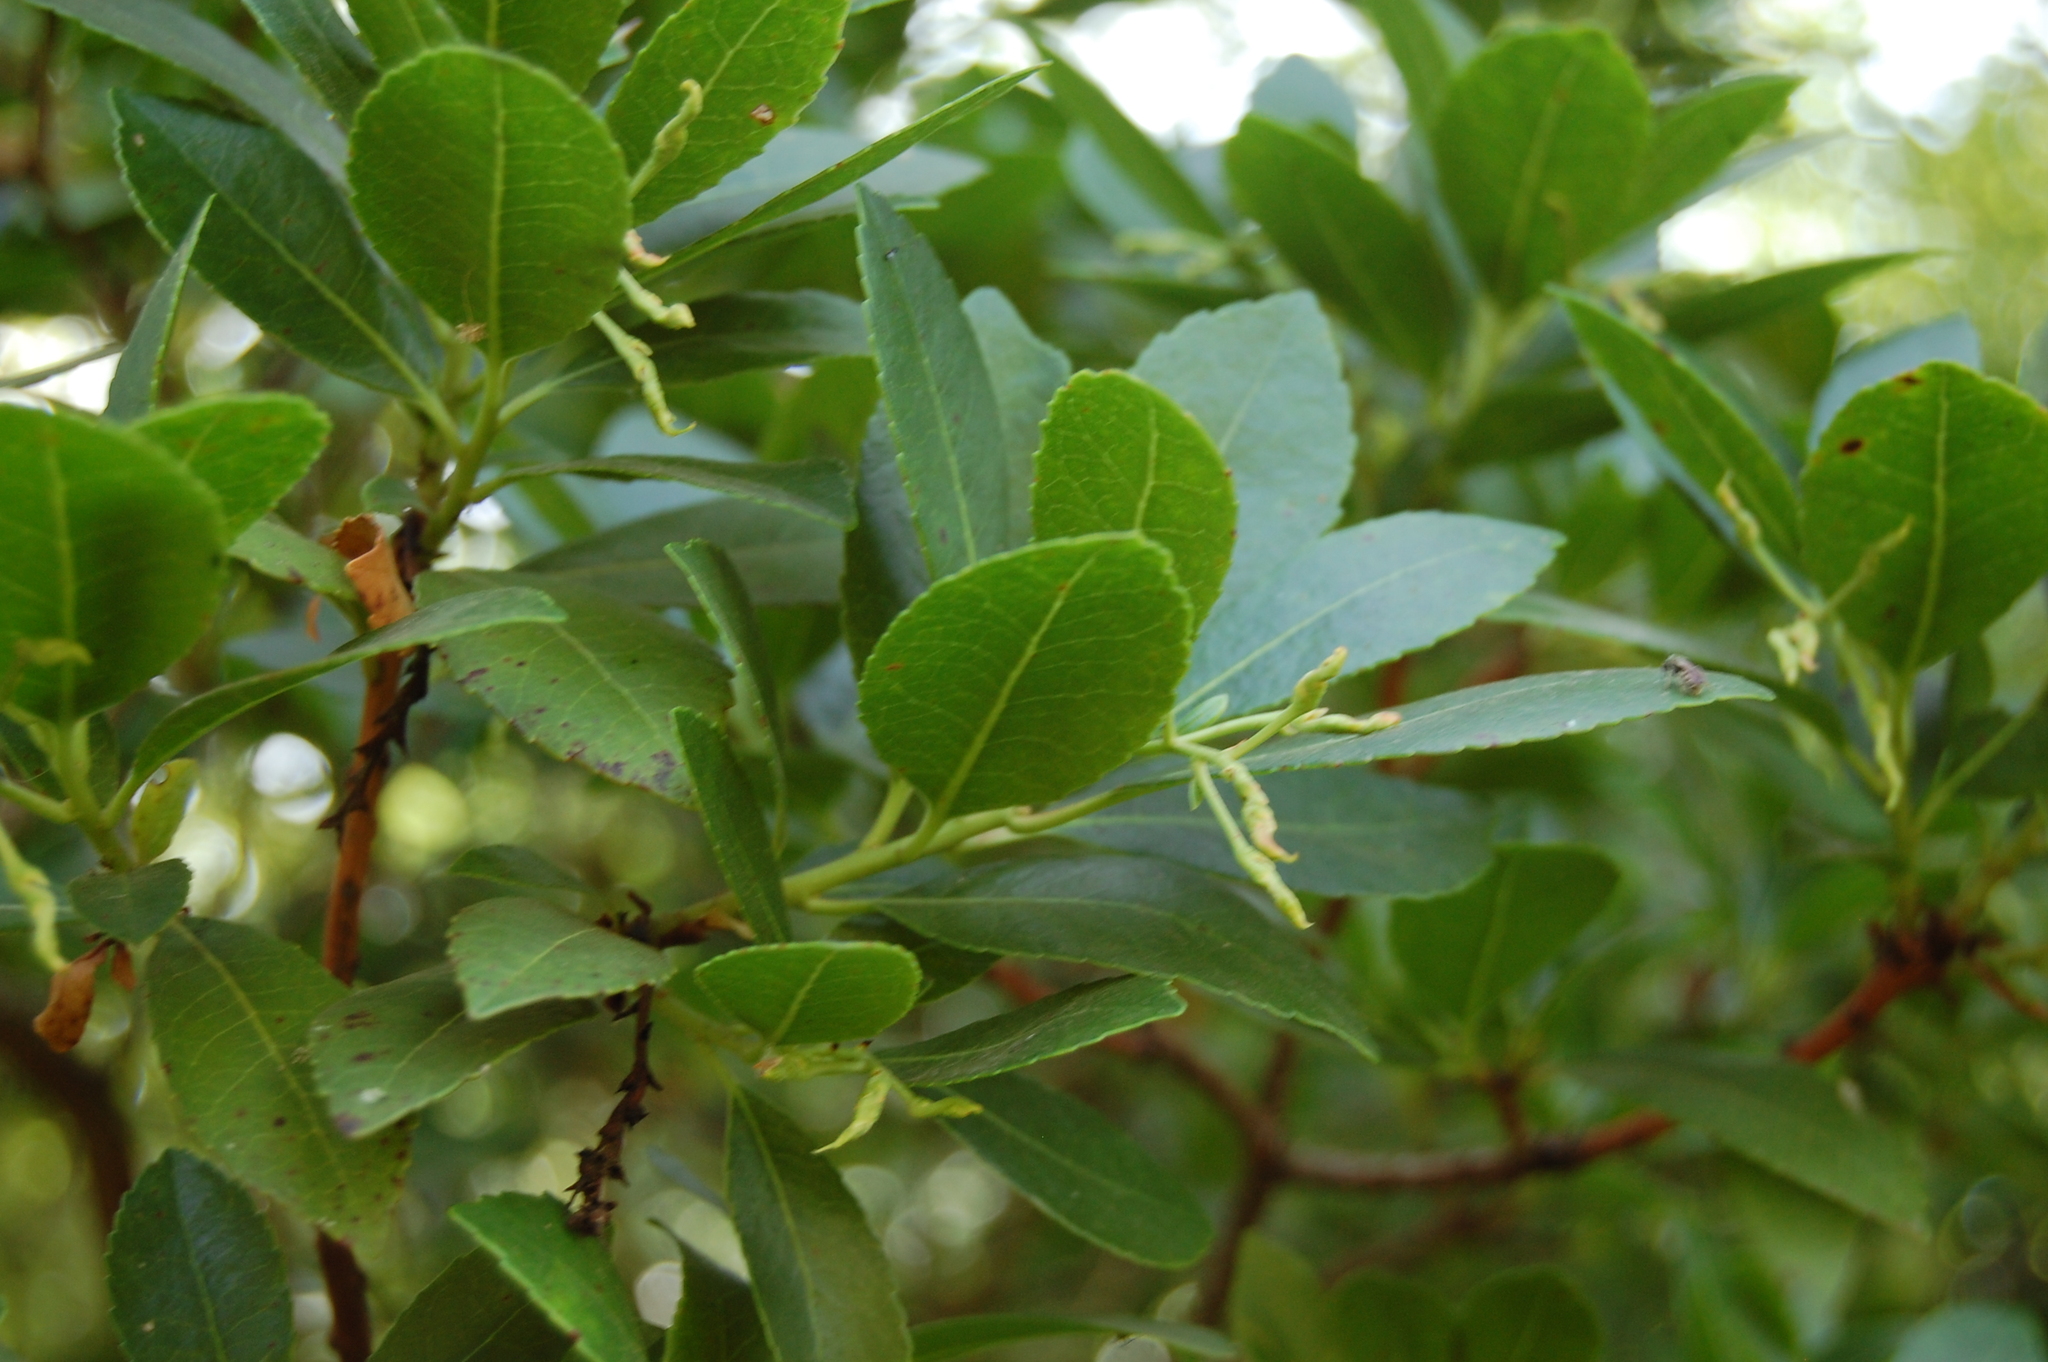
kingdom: Plantae
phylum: Tracheophyta
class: Magnoliopsida
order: Ericales
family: Ericaceae
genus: Arbutus
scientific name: Arbutus unedo
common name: Strawberry-tree
